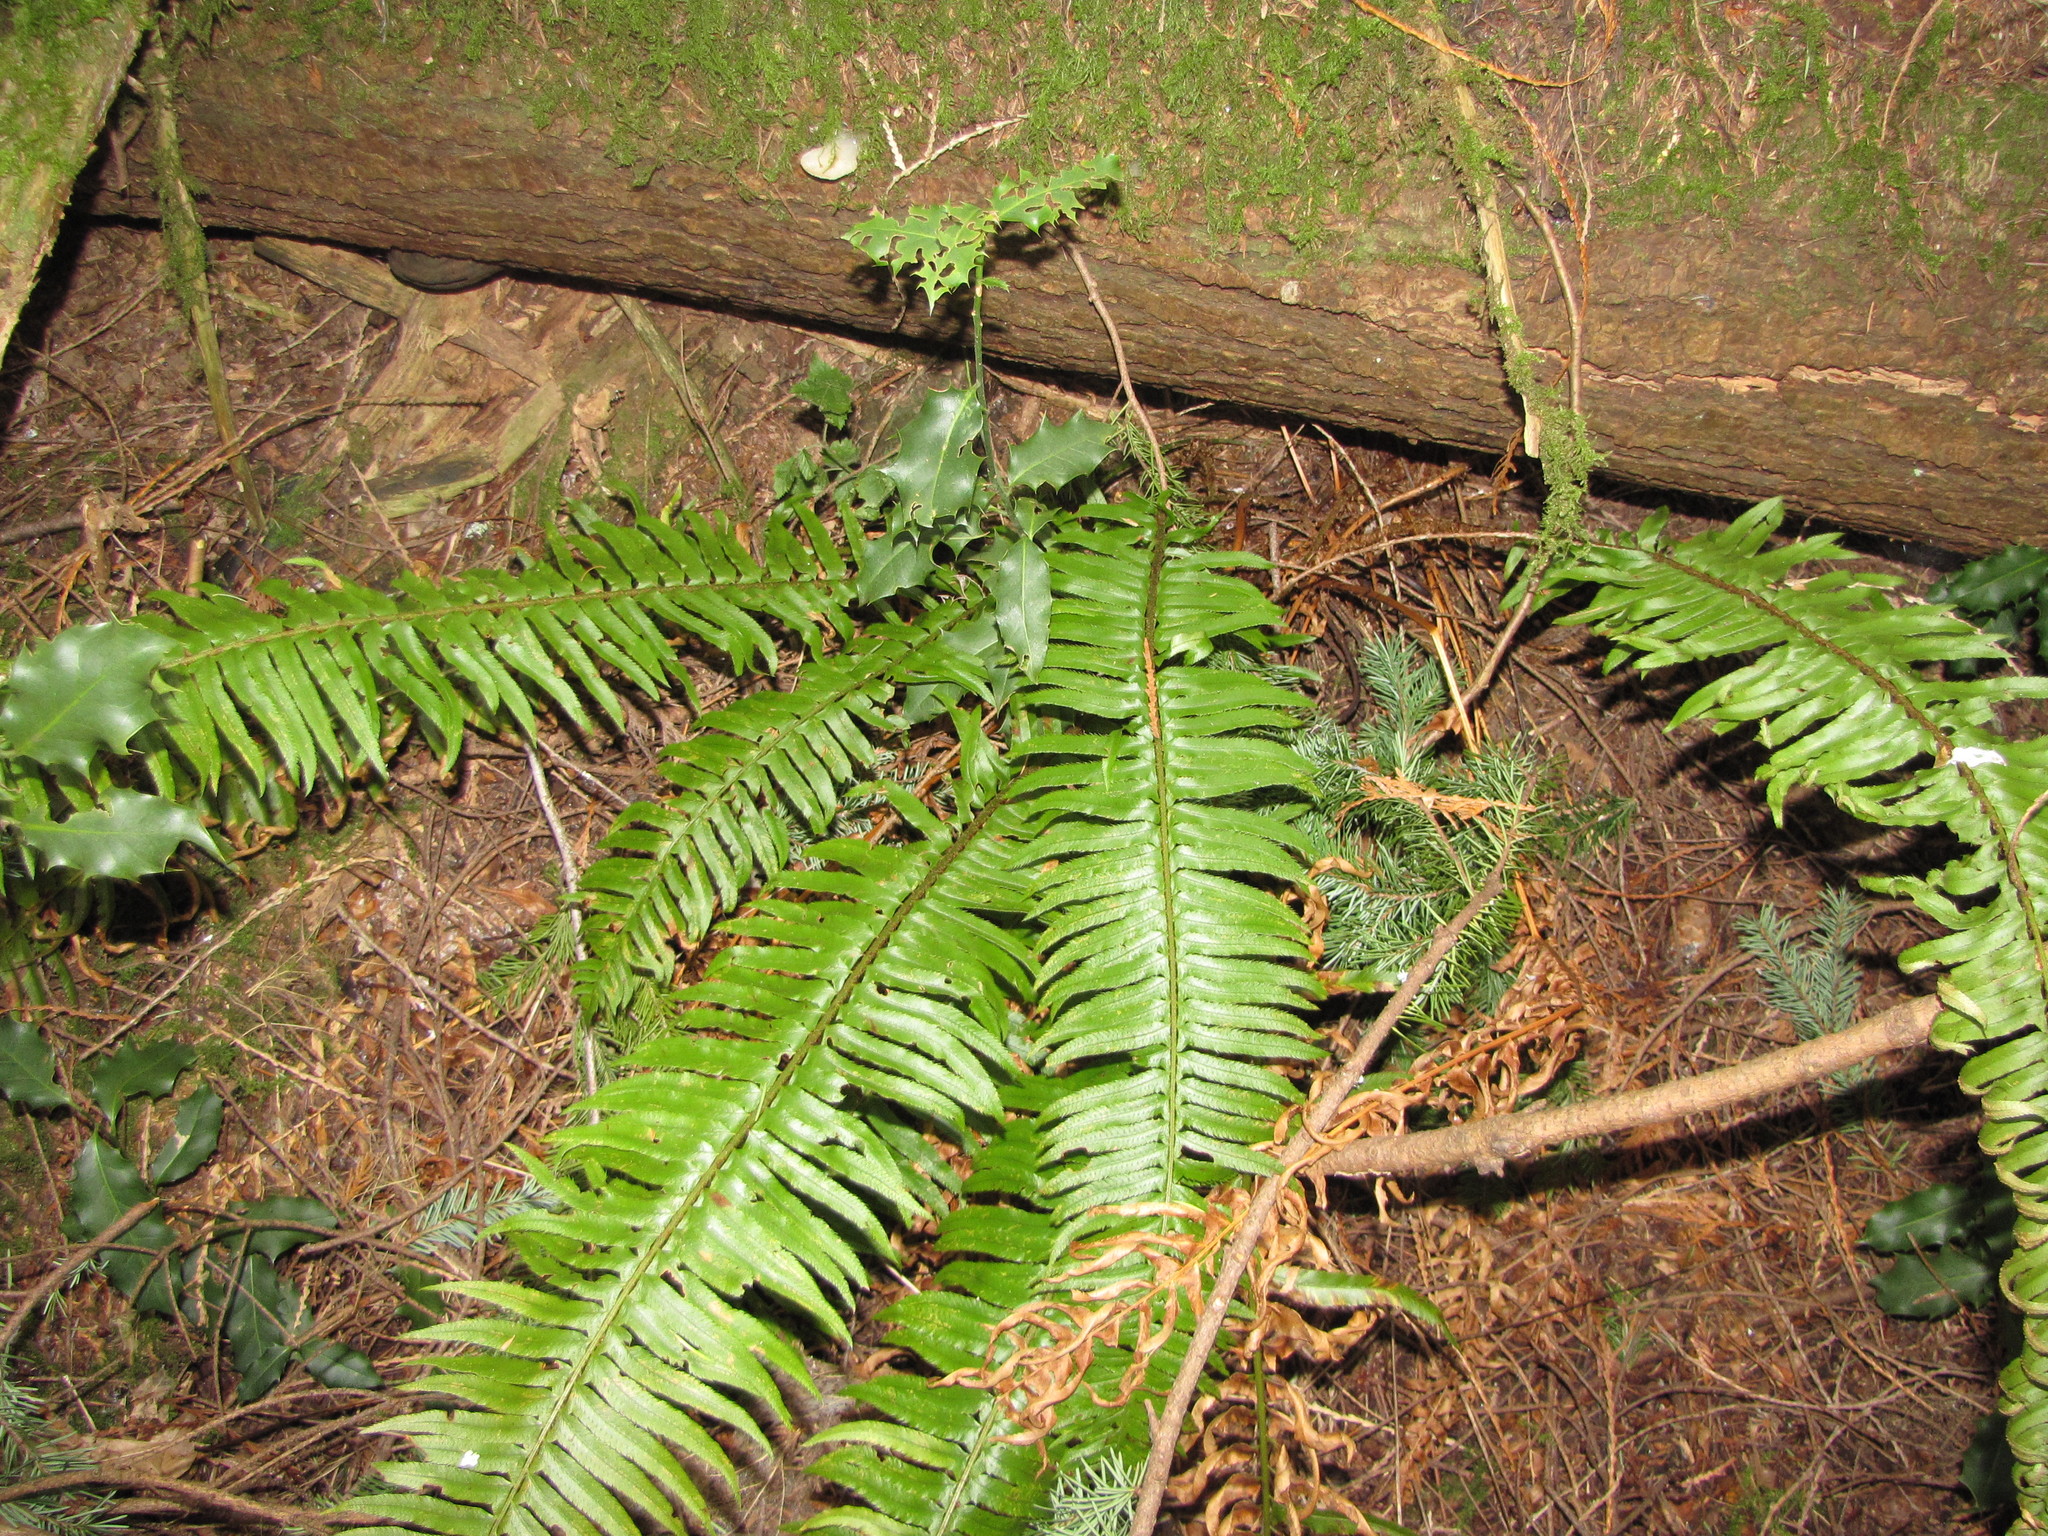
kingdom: Plantae
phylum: Tracheophyta
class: Magnoliopsida
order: Aquifoliales
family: Aquifoliaceae
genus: Ilex
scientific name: Ilex aquifolium
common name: English holly
